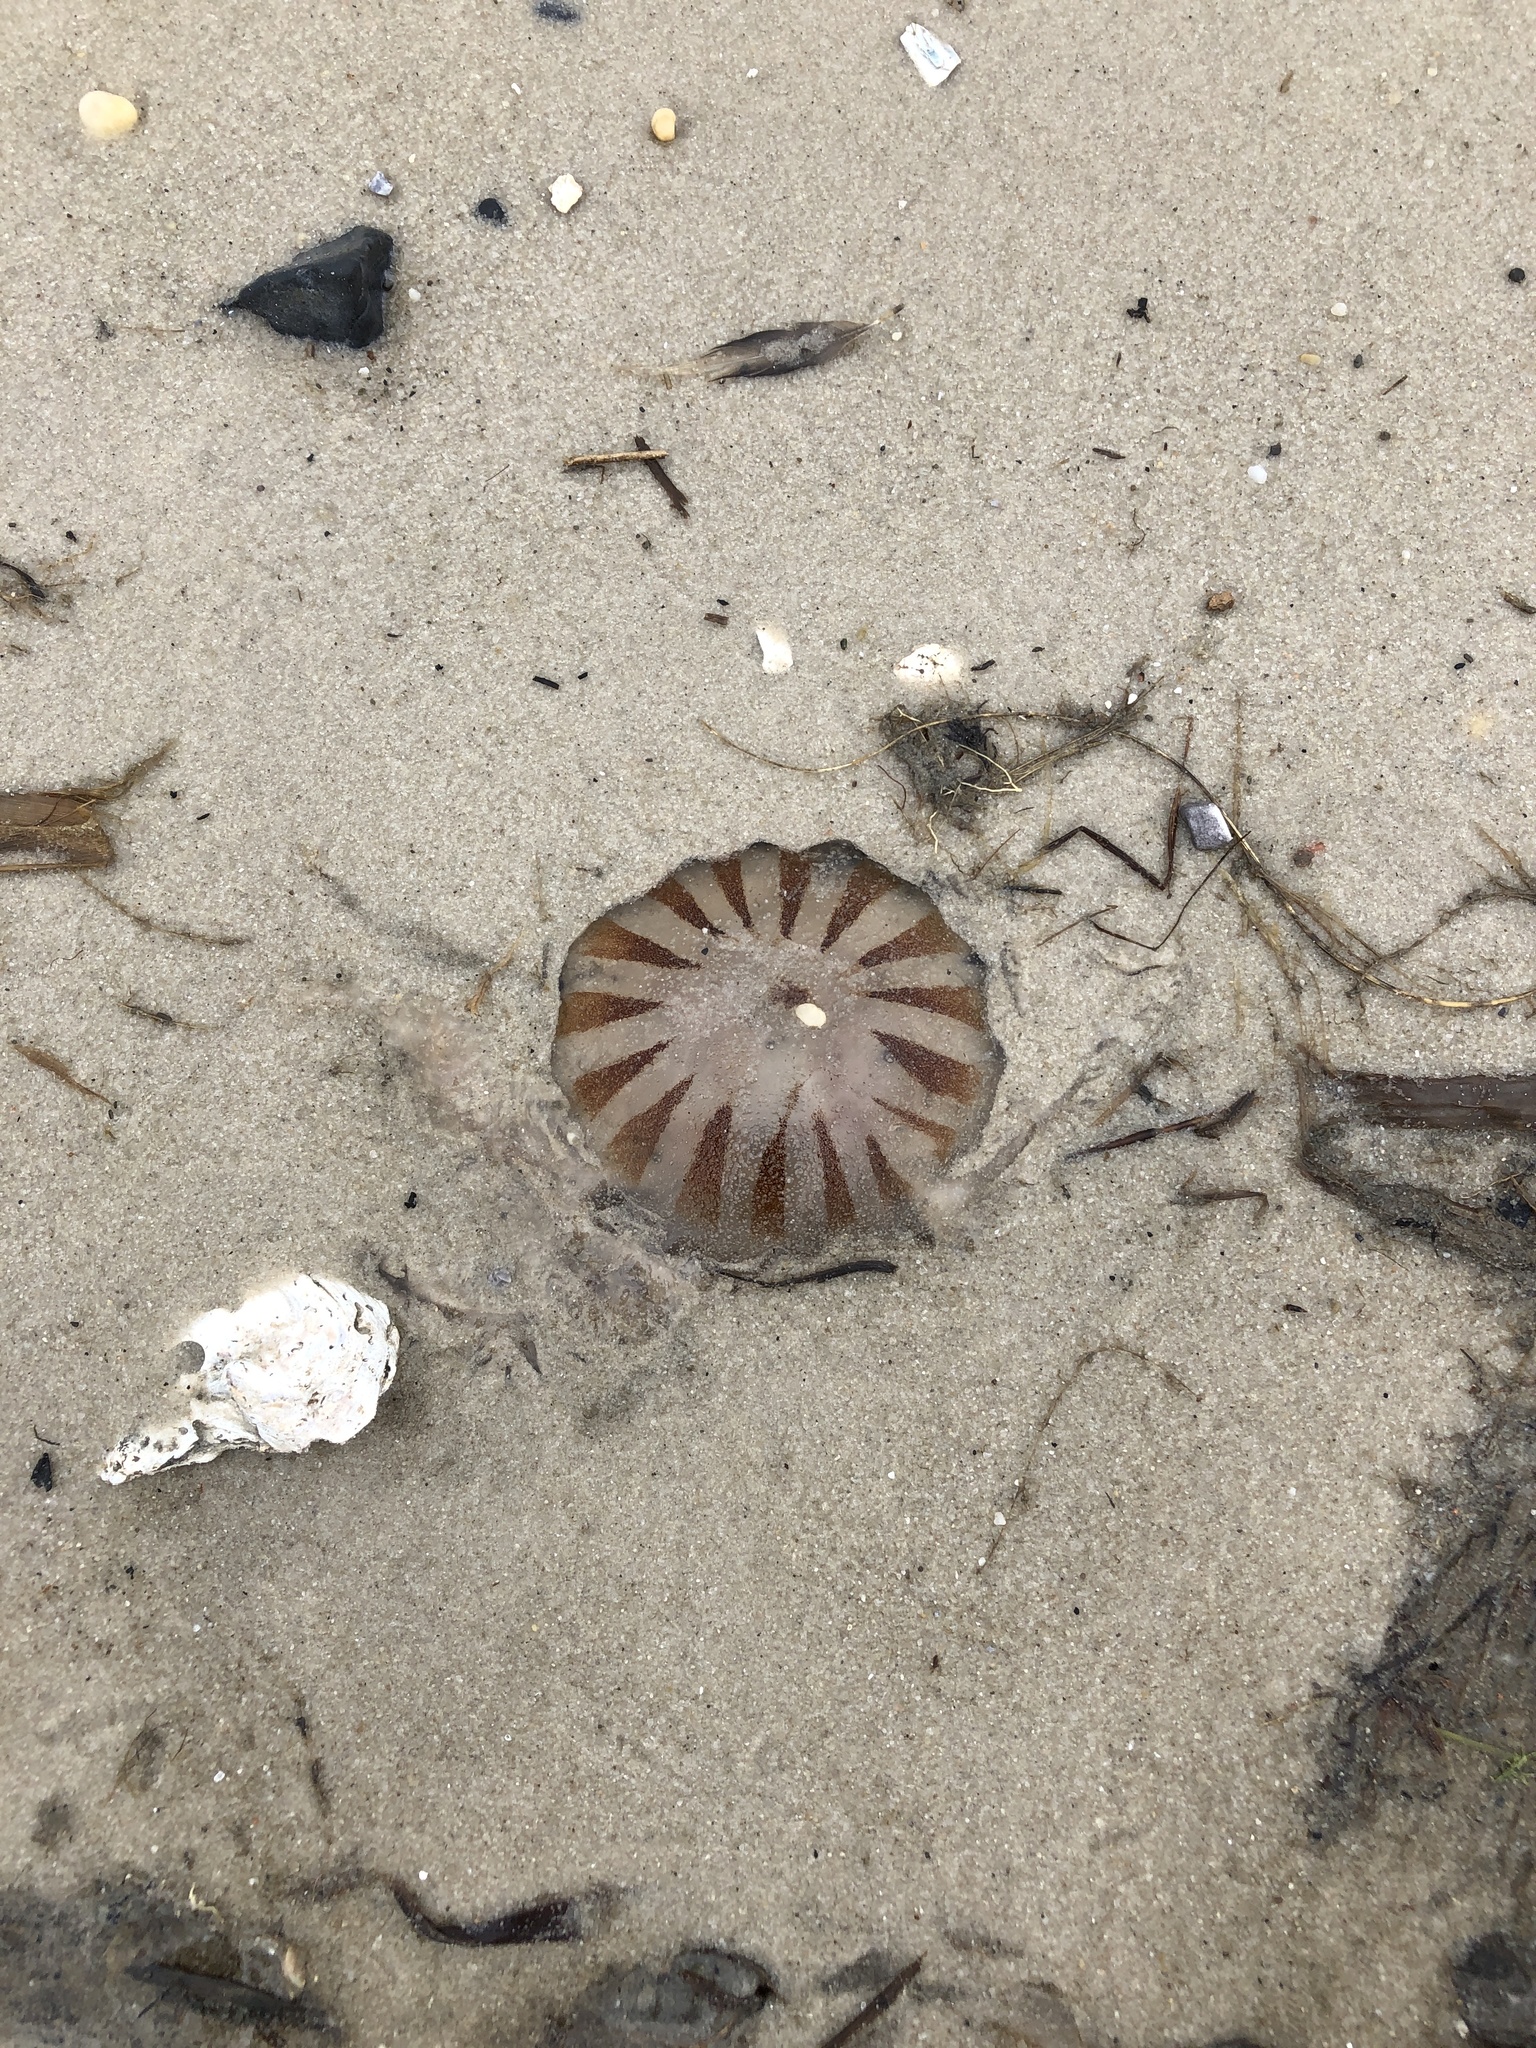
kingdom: Animalia
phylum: Cnidaria
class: Scyphozoa
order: Semaeostomeae
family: Pelagiidae
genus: Chrysaora
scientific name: Chrysaora chesapeakei
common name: Bay nettle
